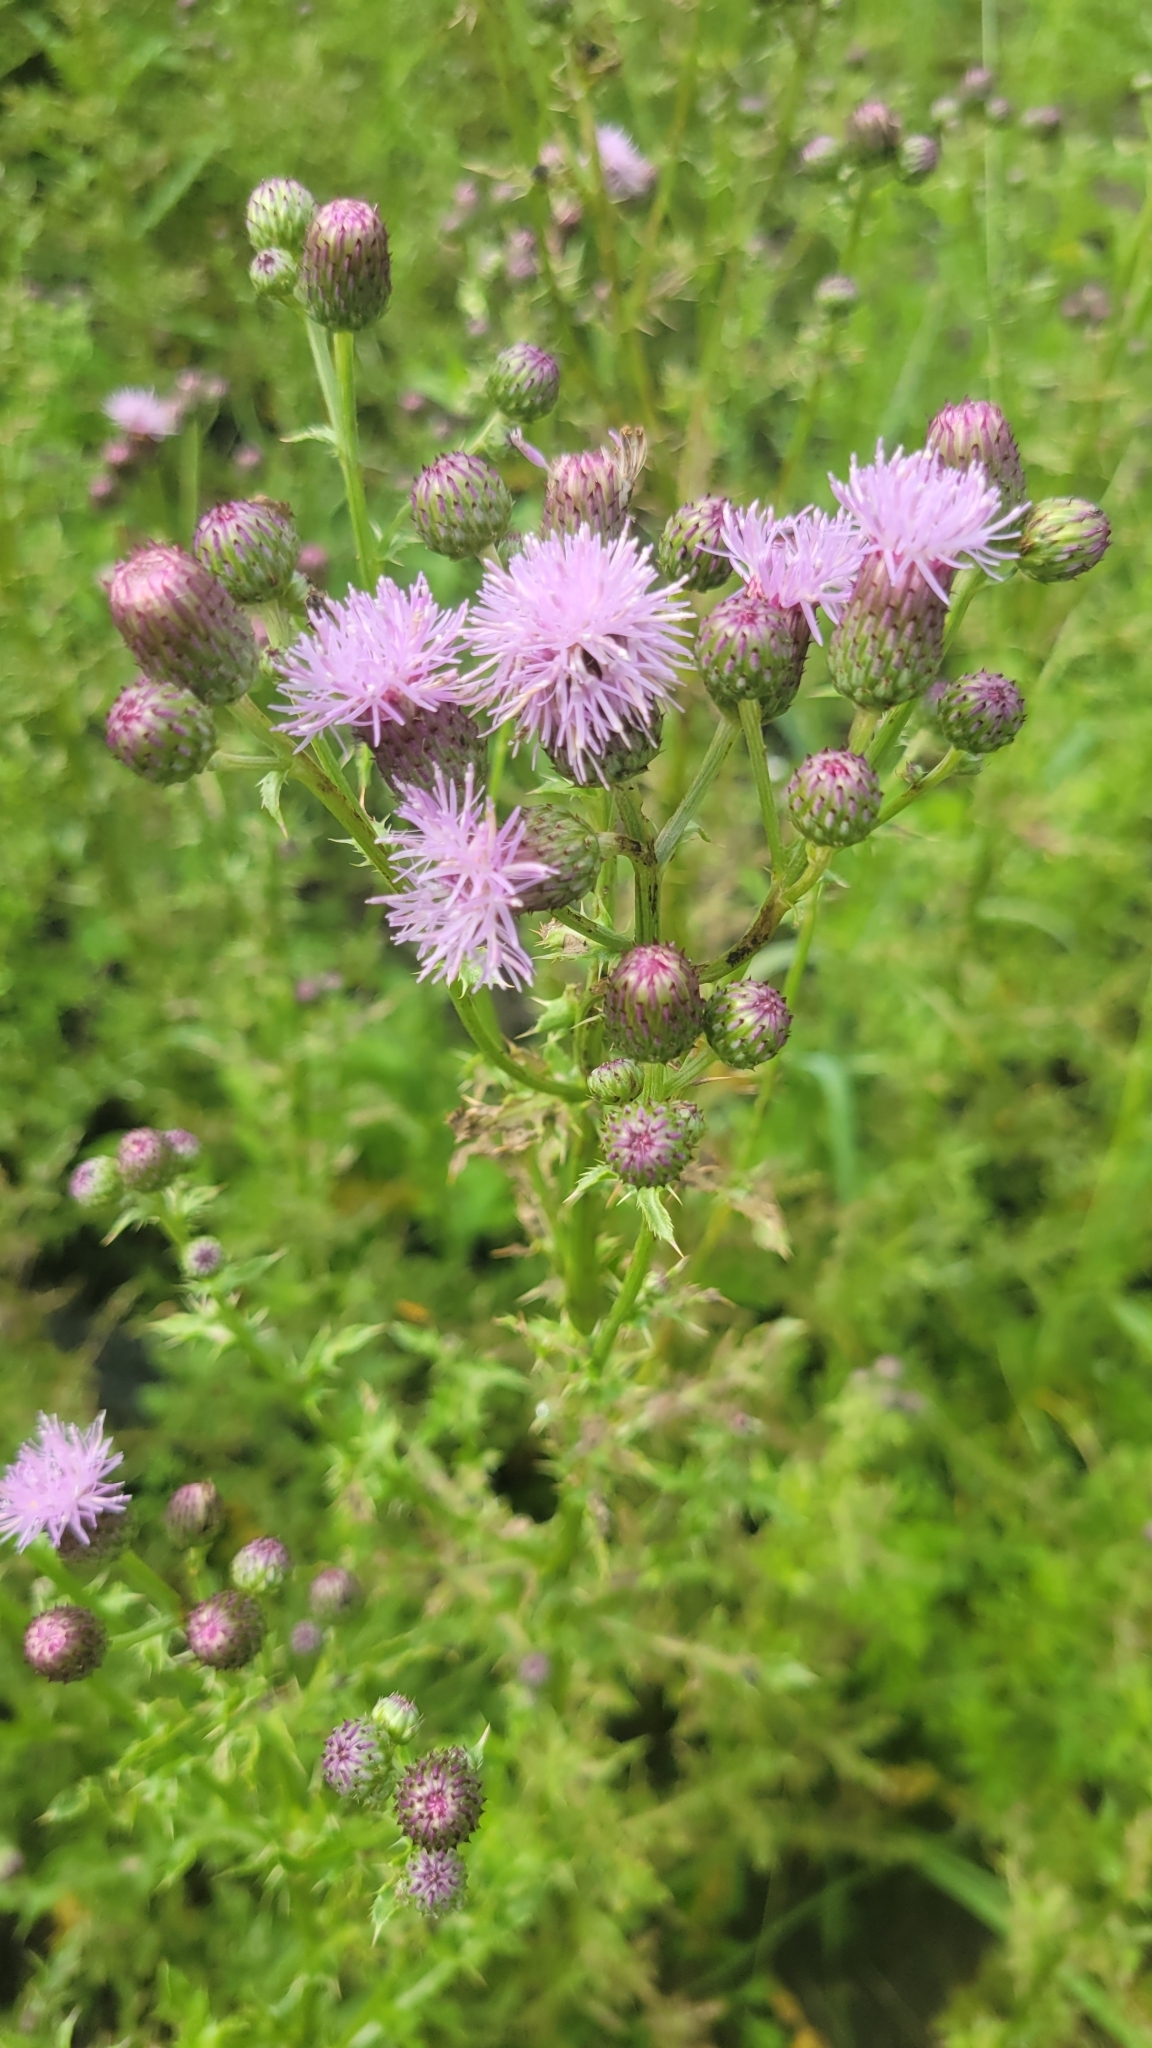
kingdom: Plantae
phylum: Tracheophyta
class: Magnoliopsida
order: Asterales
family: Asteraceae
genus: Cirsium
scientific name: Cirsium arvense
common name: Creeping thistle
